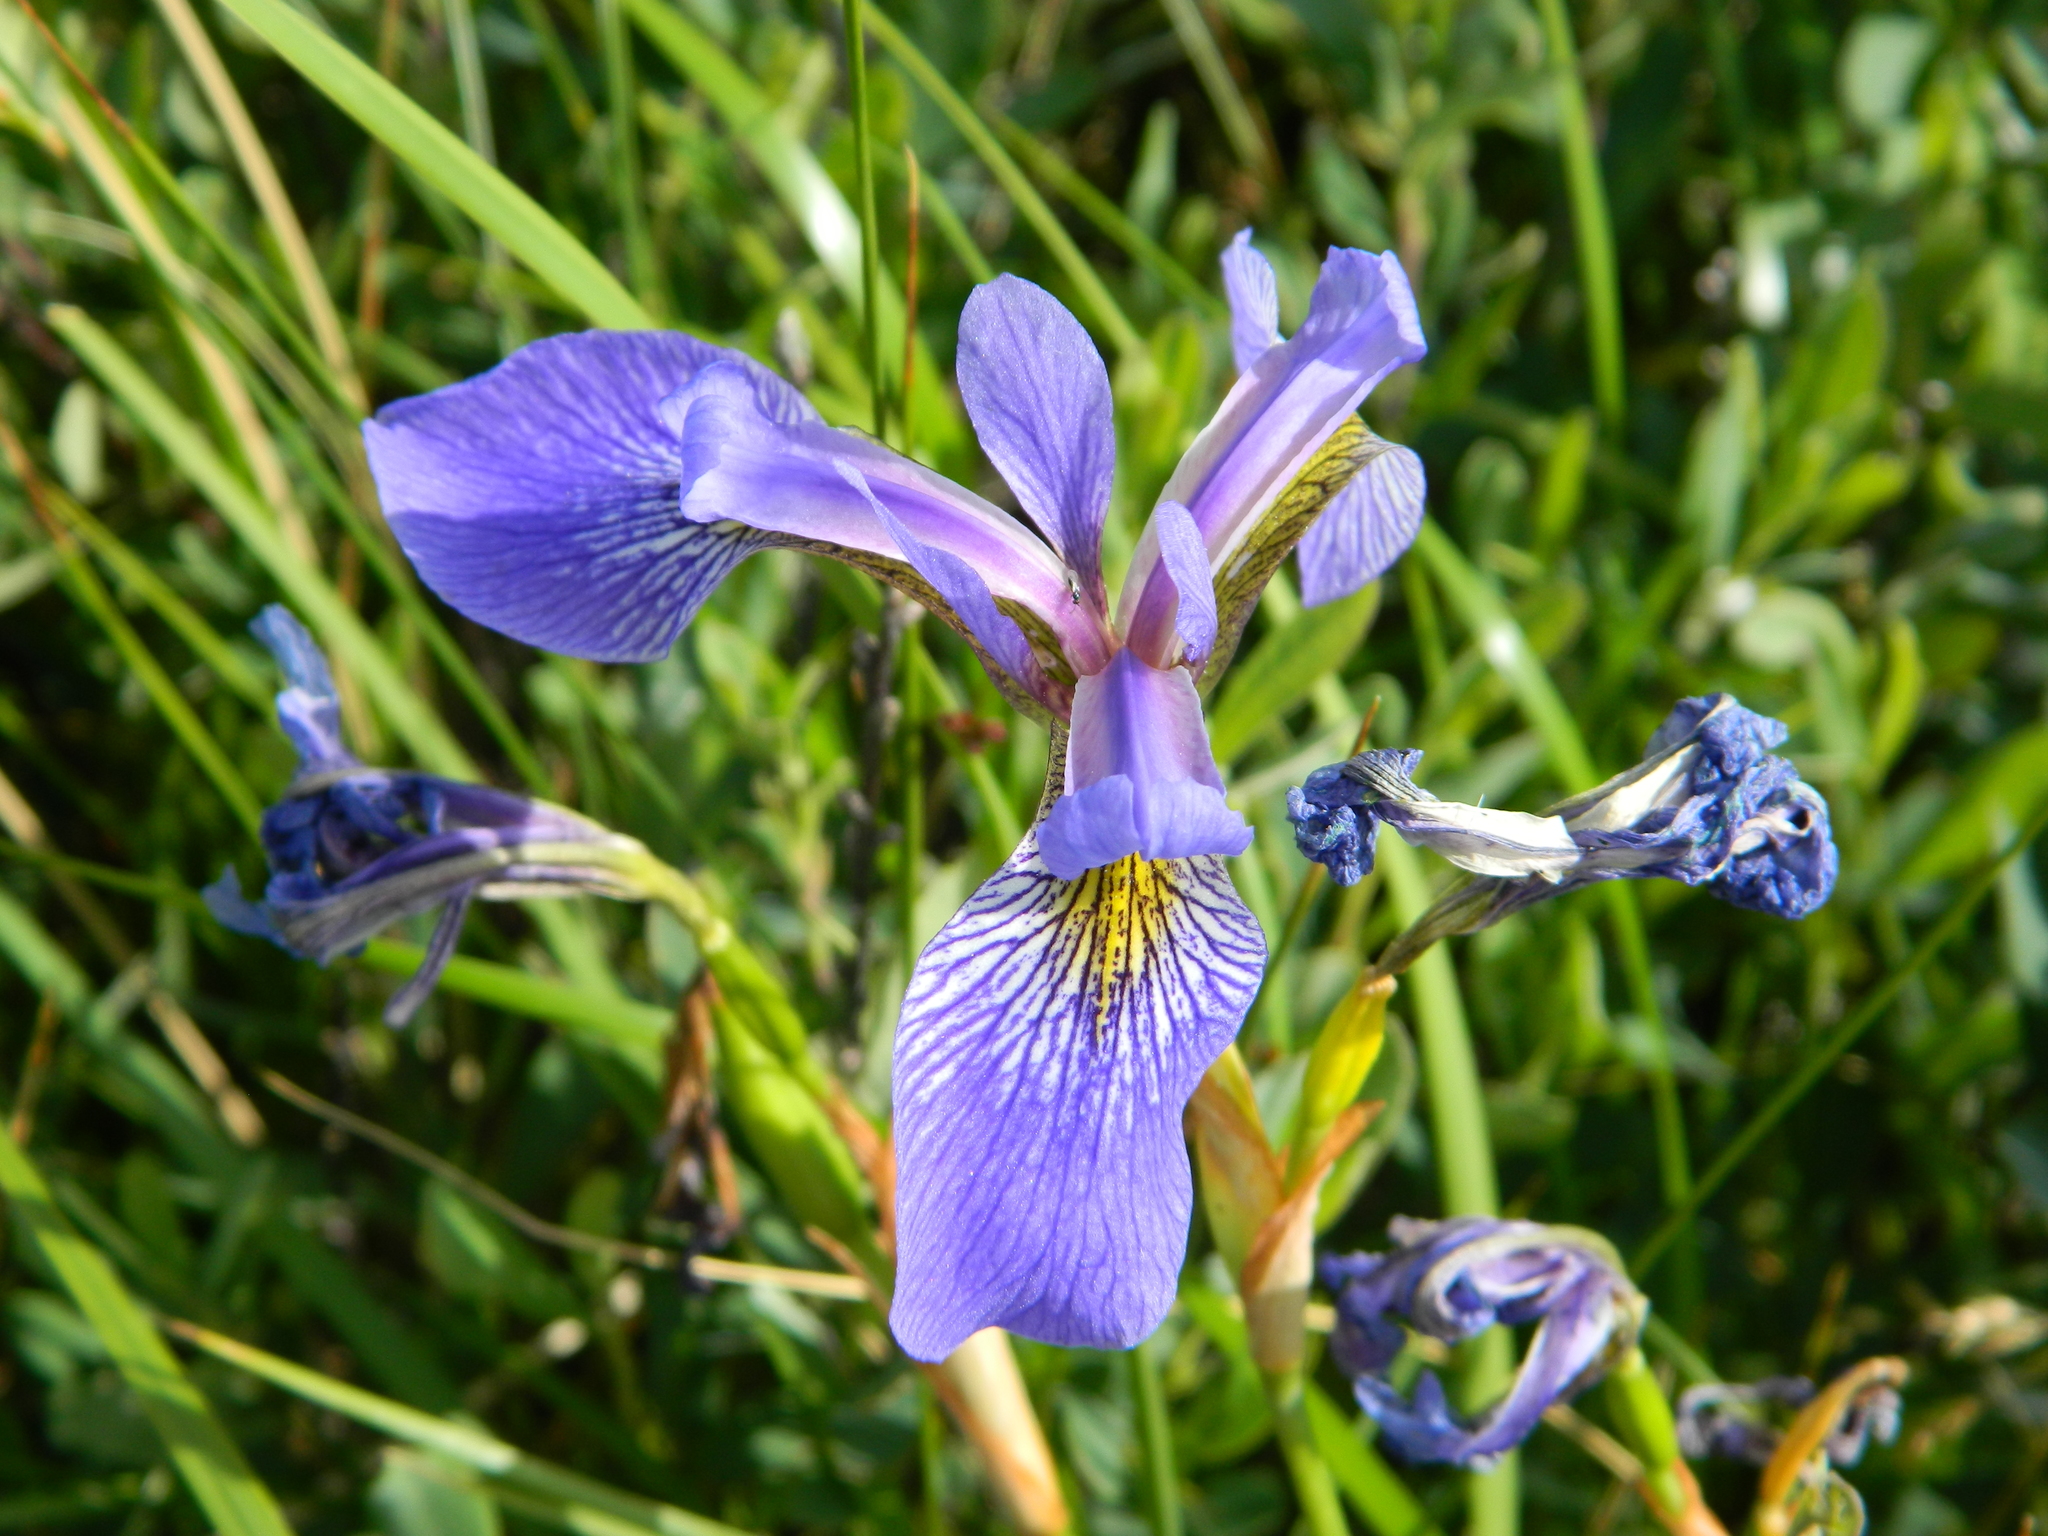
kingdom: Plantae
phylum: Tracheophyta
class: Liliopsida
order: Asparagales
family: Iridaceae
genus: Iris
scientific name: Iris versicolor
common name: Purple iris
